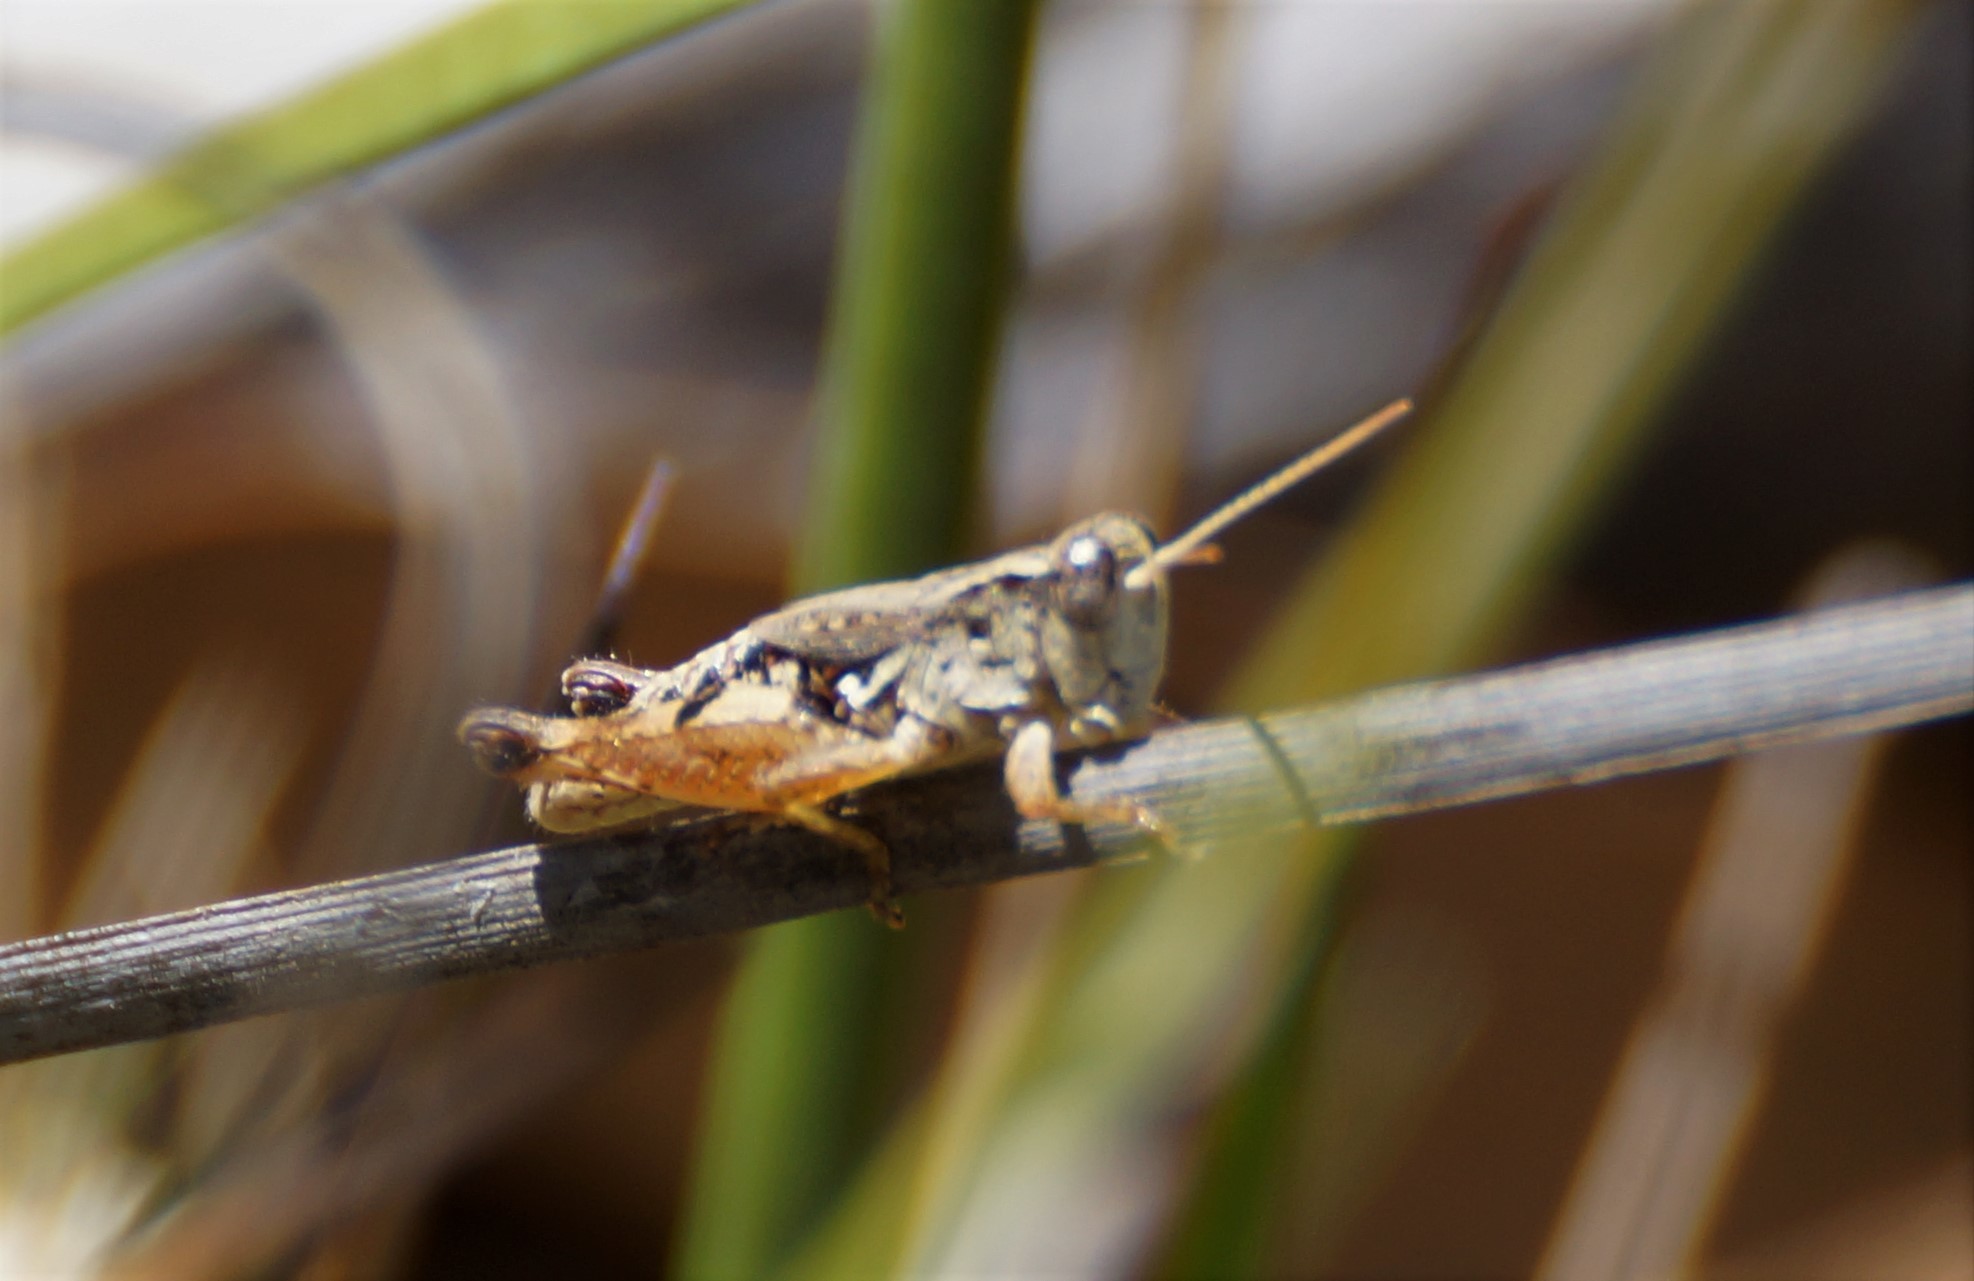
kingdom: Animalia
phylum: Arthropoda
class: Insecta
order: Orthoptera
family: Acrididae
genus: Phaulacridium
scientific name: Phaulacridium vittatum
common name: Wingless grasshopper
